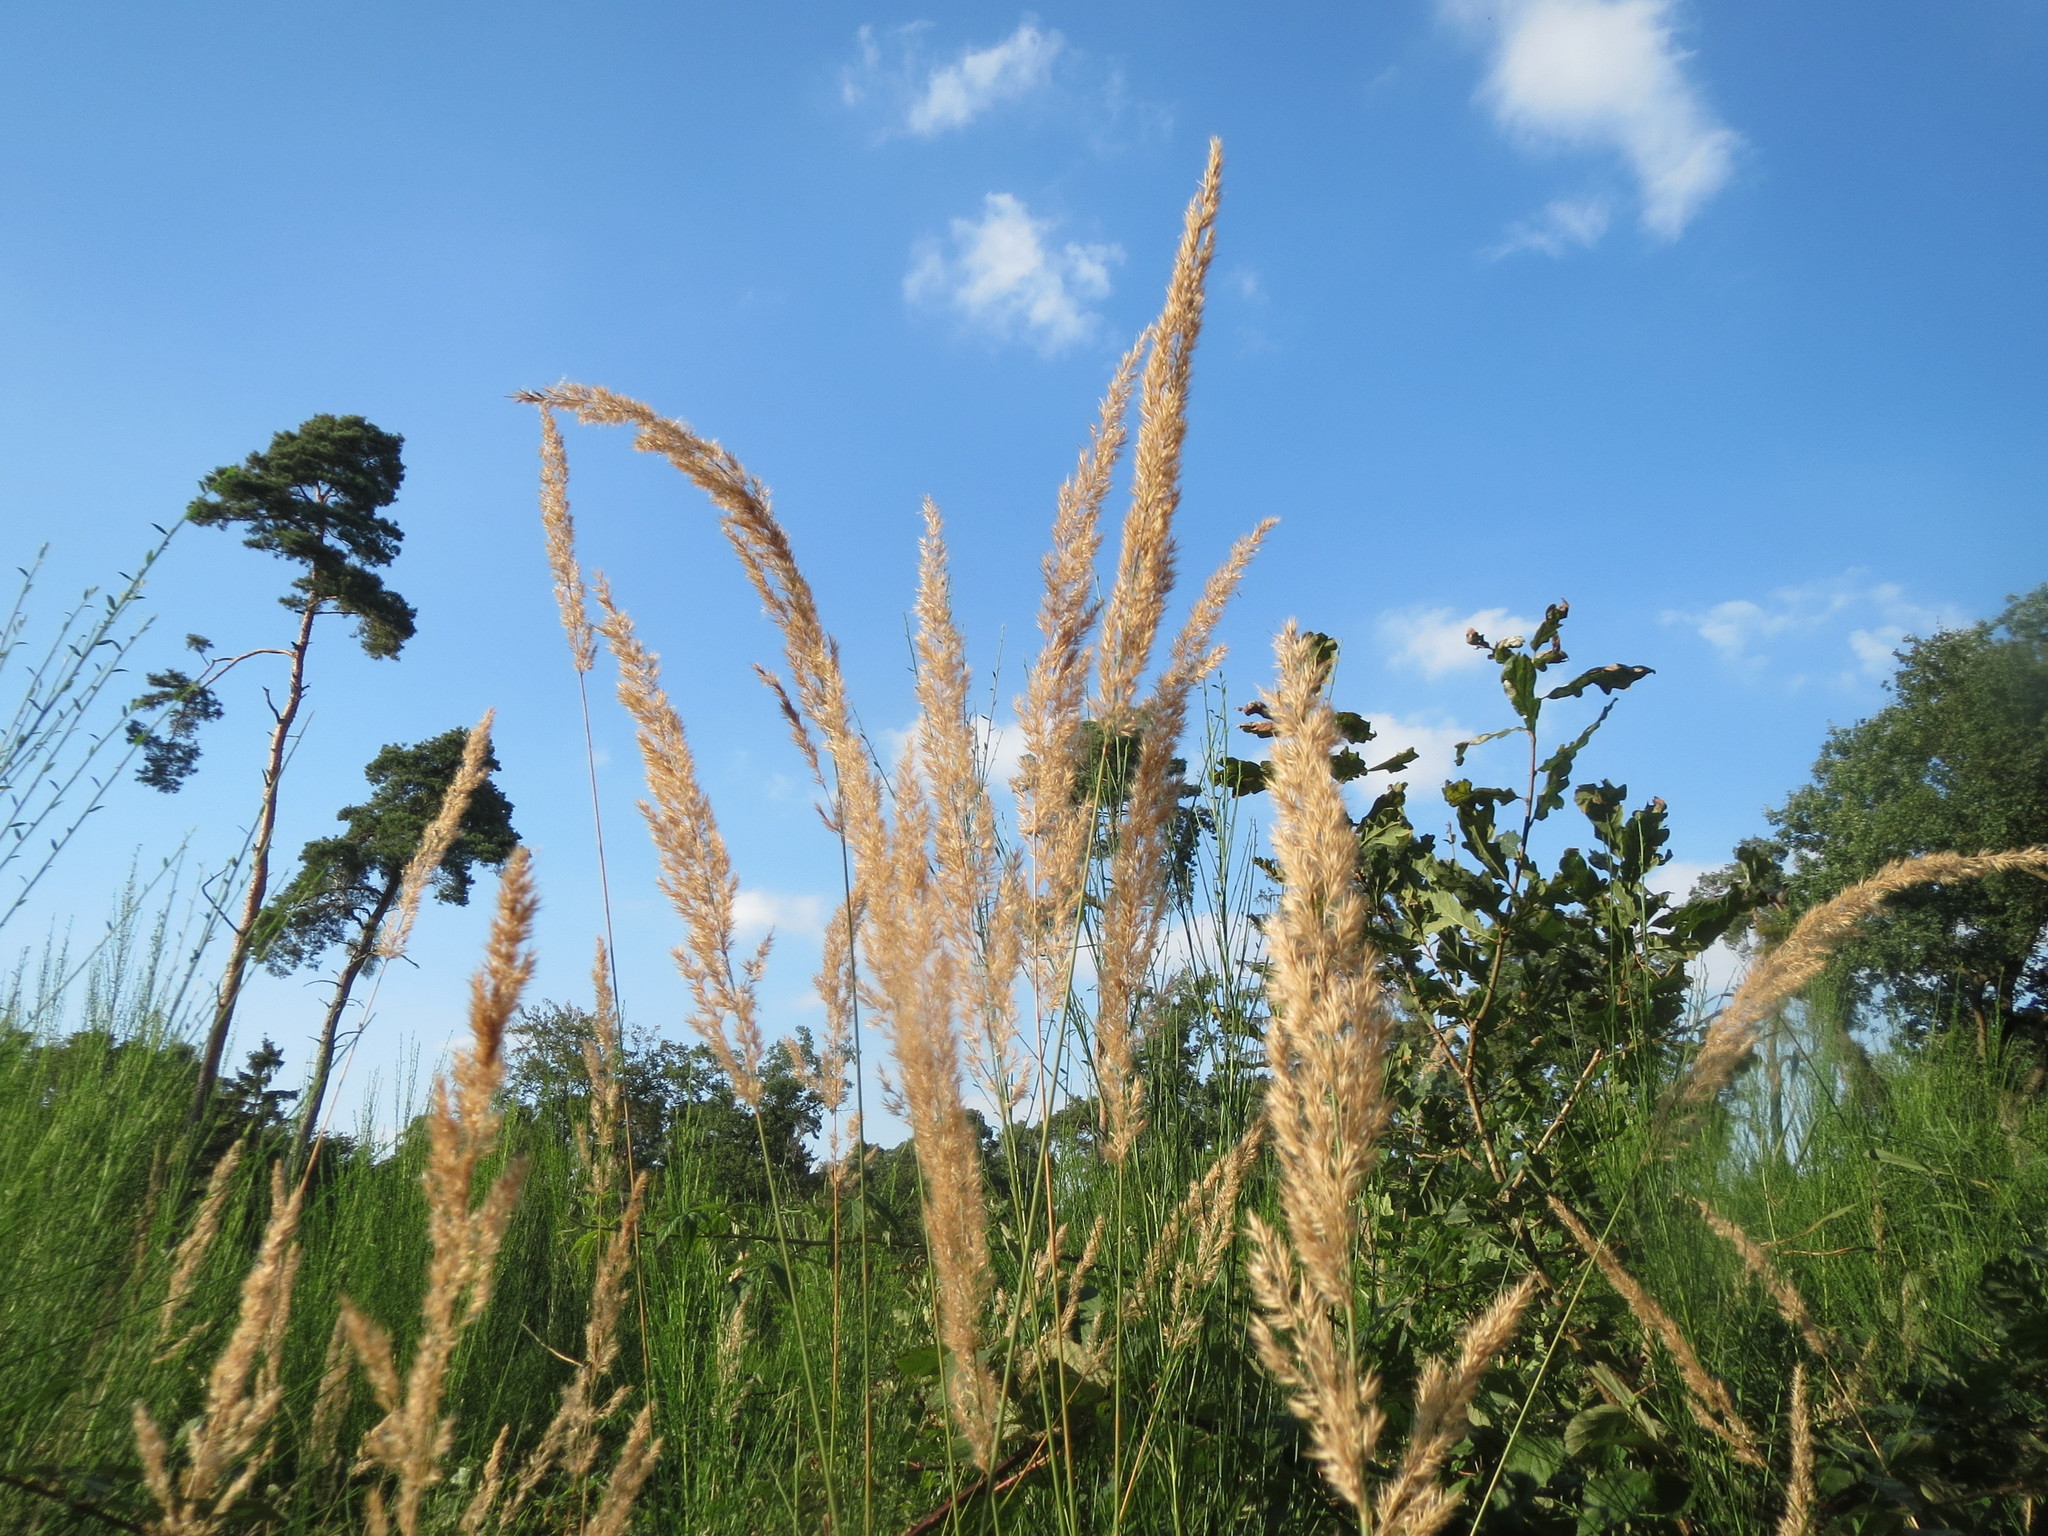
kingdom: Plantae
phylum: Tracheophyta
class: Liliopsida
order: Poales
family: Poaceae
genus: Calamagrostis
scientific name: Calamagrostis epigejos
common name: Wood small-reed
